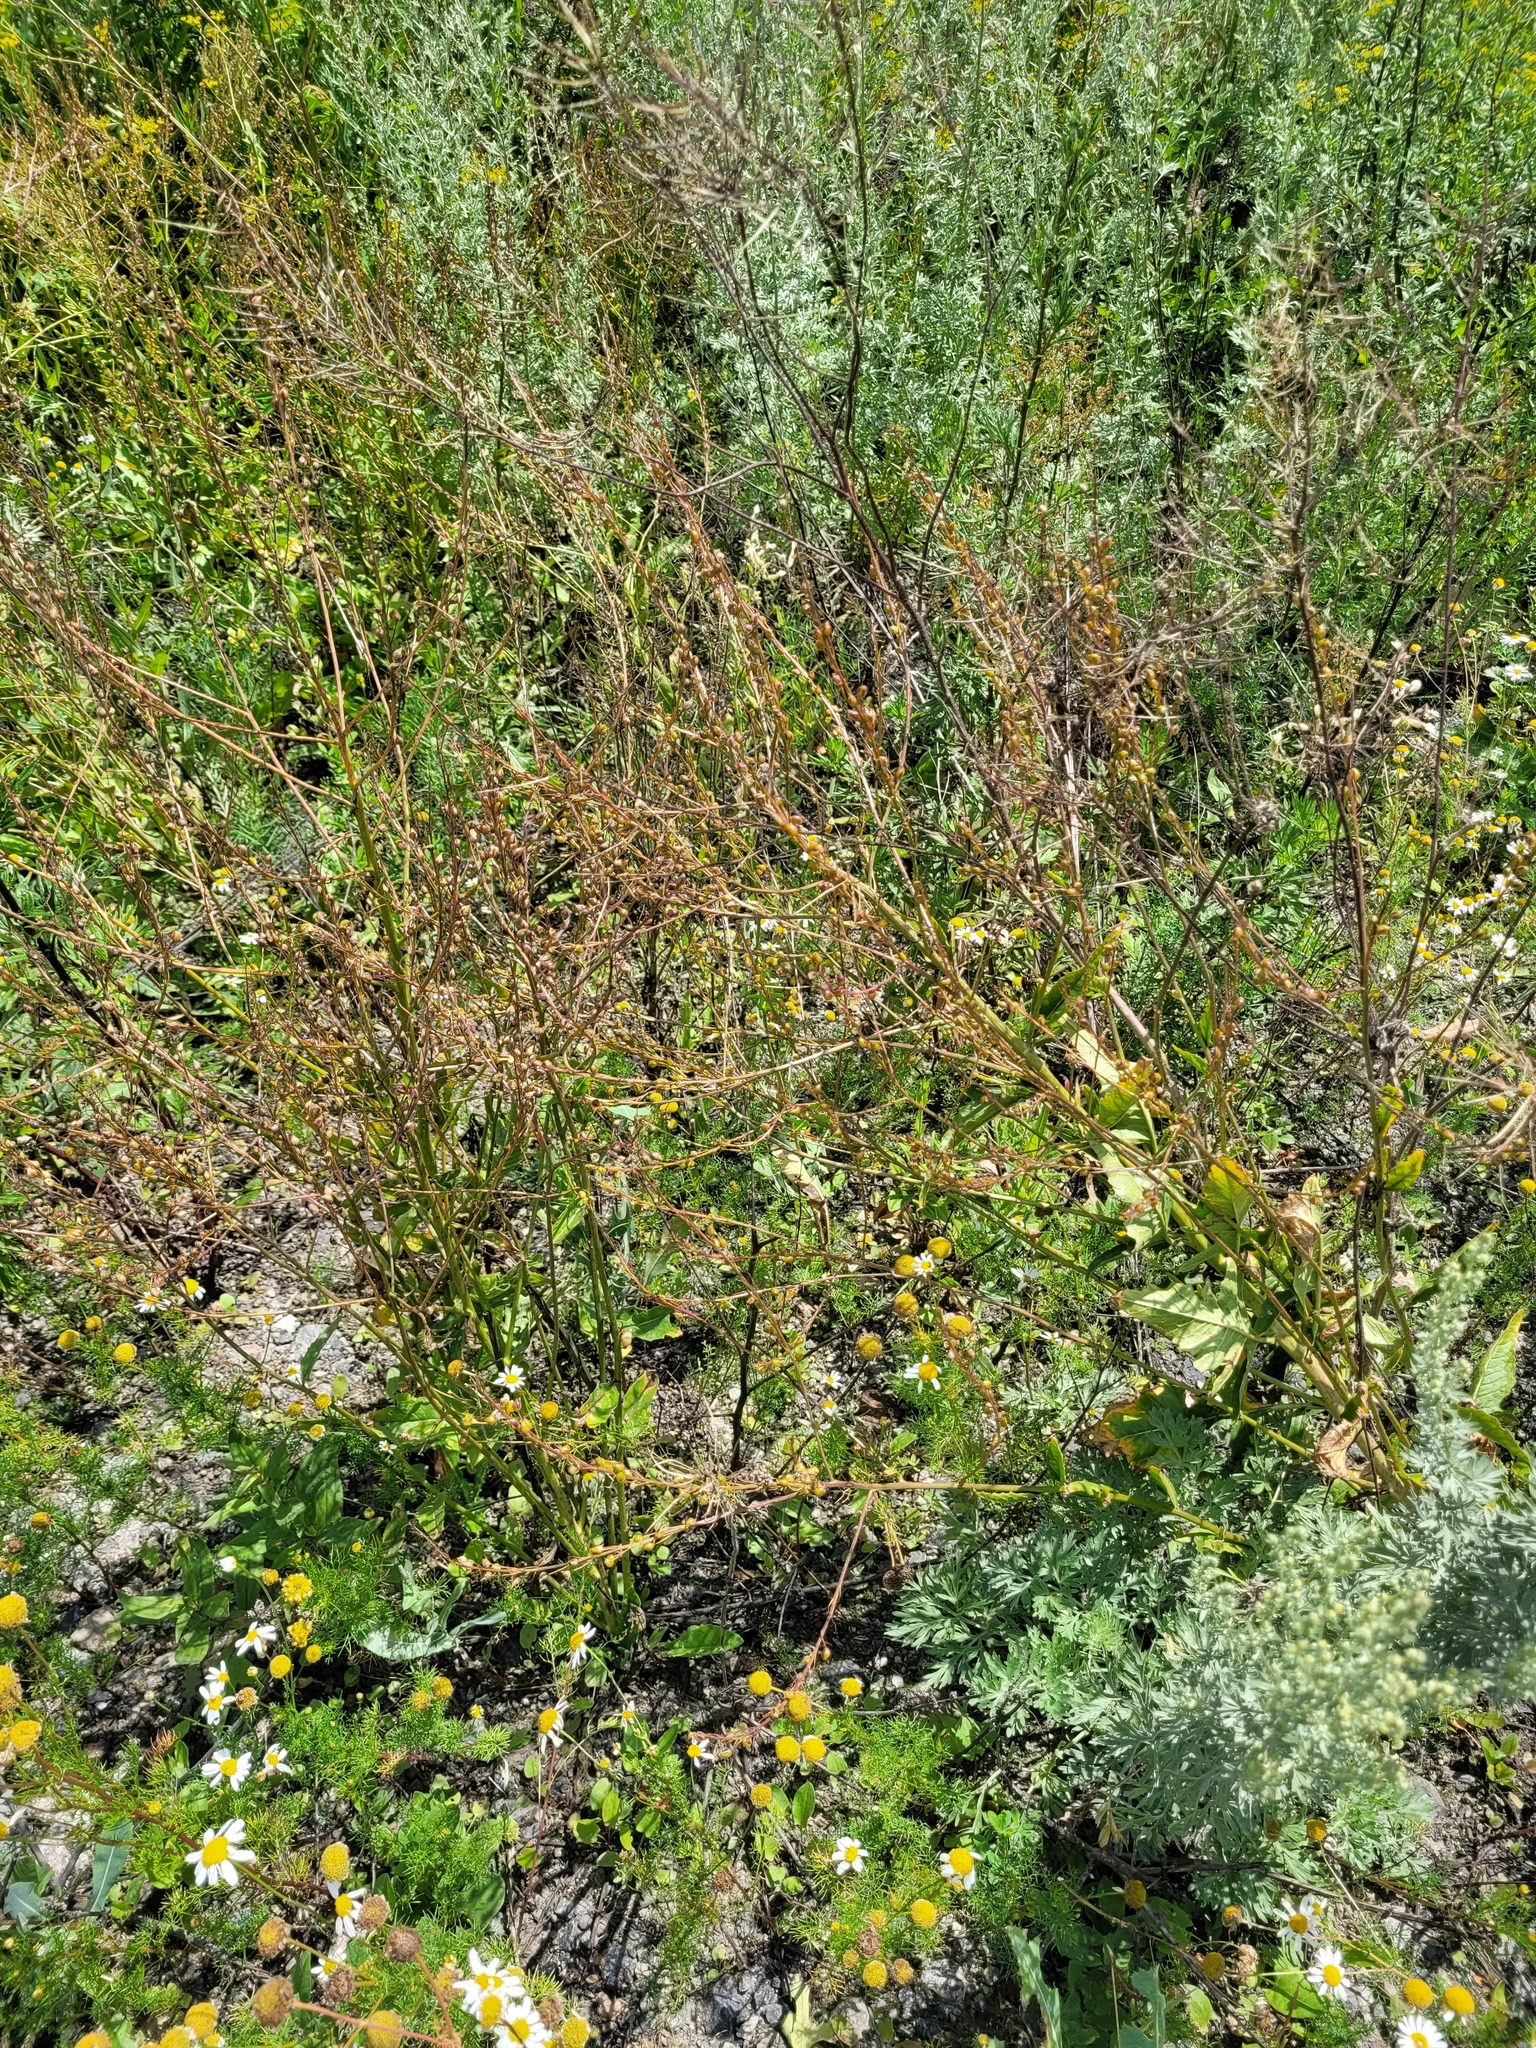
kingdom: Plantae
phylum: Tracheophyta
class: Magnoliopsida
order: Brassicales
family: Brassicaceae
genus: Bunias
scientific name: Bunias orientalis
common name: Warty-cabbage
